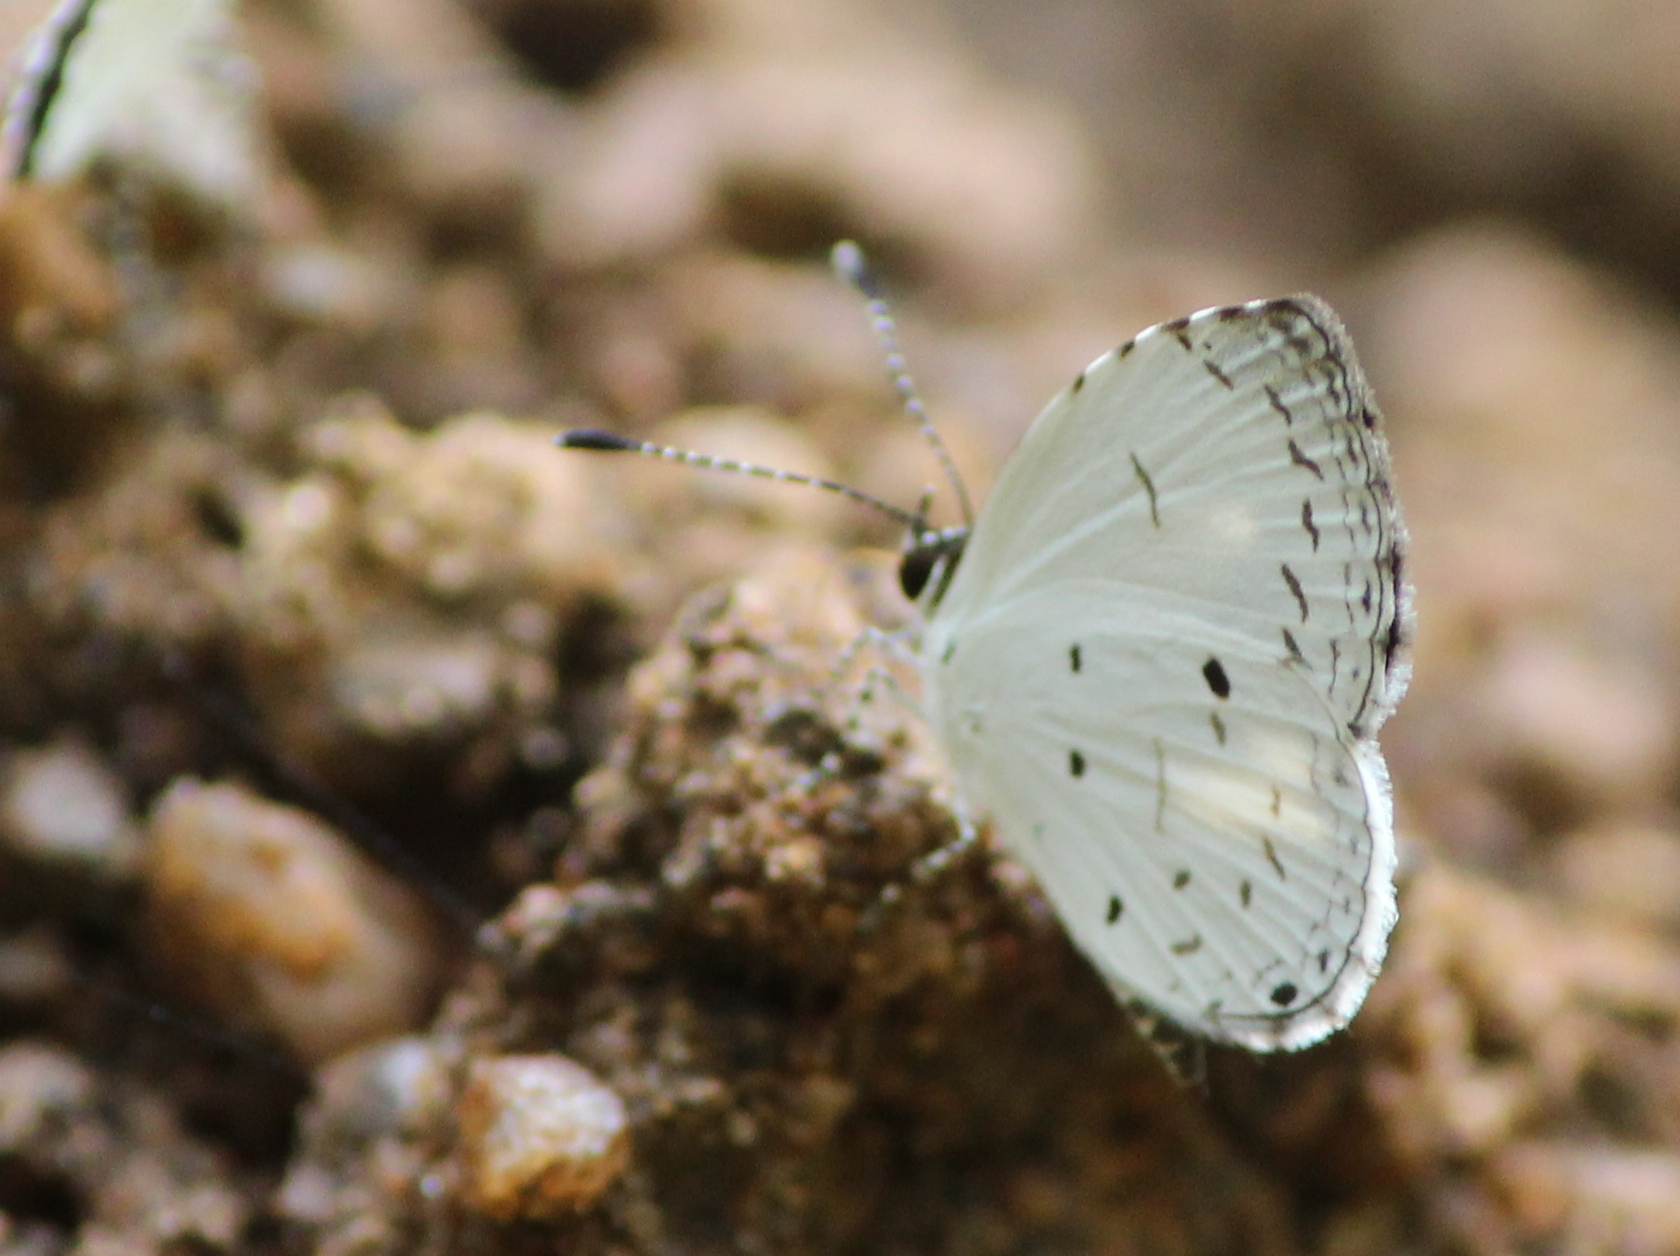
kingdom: Animalia
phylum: Arthropoda
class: Insecta
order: Lepidoptera
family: Lycaenidae
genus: Neopithecops
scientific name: Neopithecops zalmora
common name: Quaker
